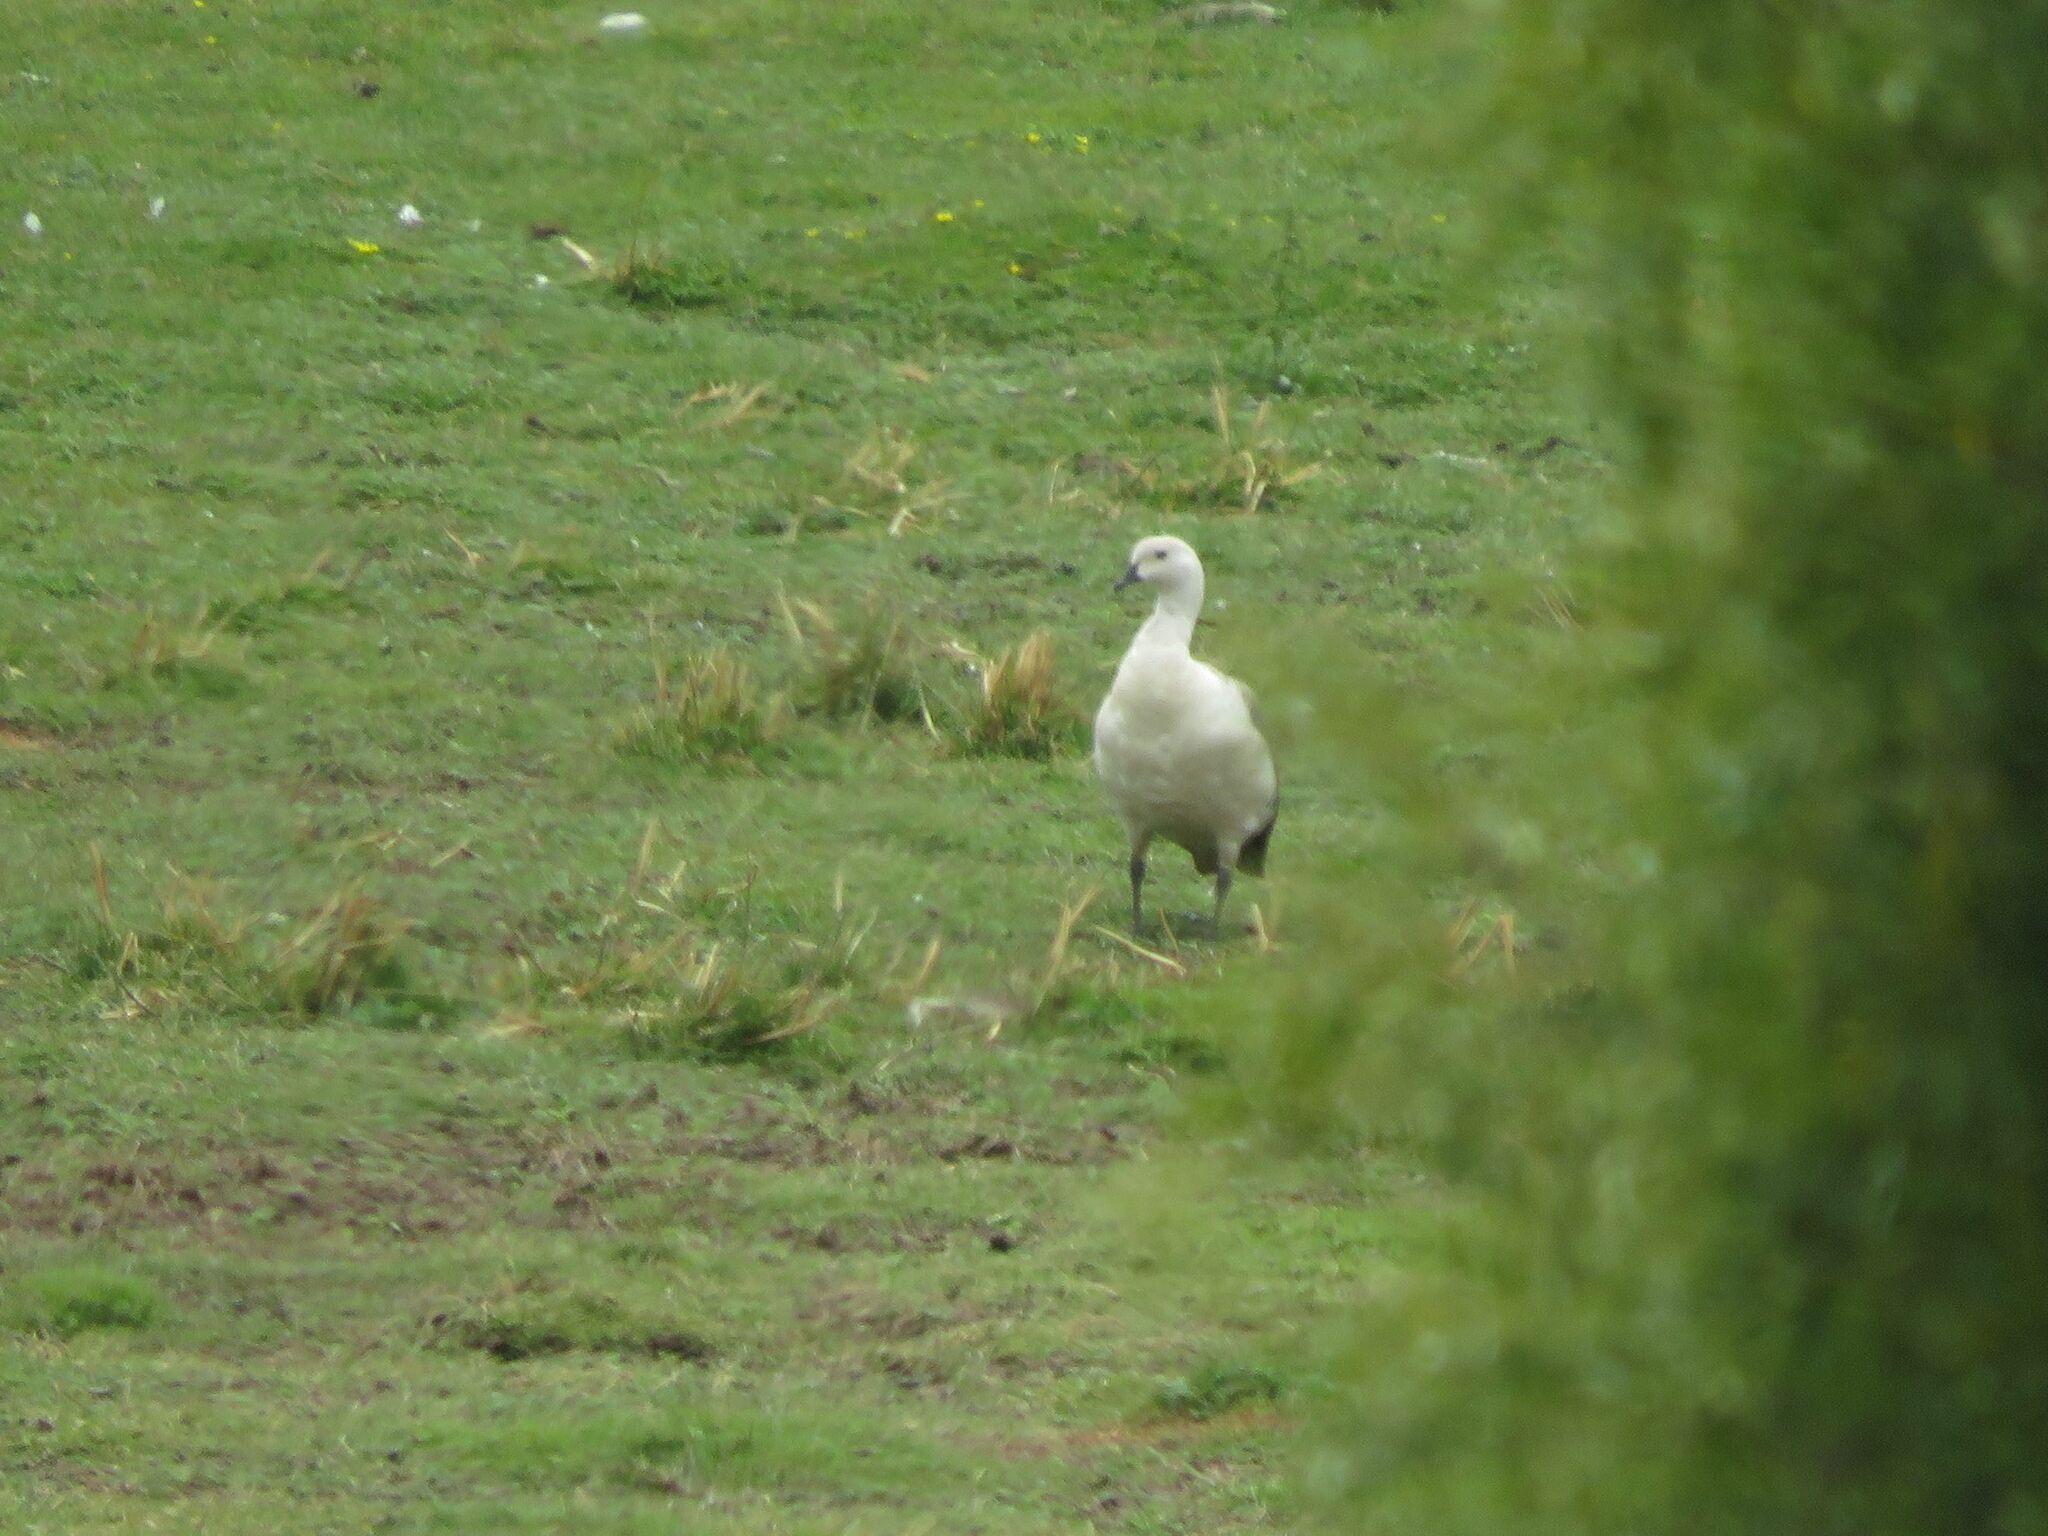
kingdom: Animalia
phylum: Chordata
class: Aves
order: Anseriformes
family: Anatidae
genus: Chloephaga
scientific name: Chloephaga picta
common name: Upland goose
